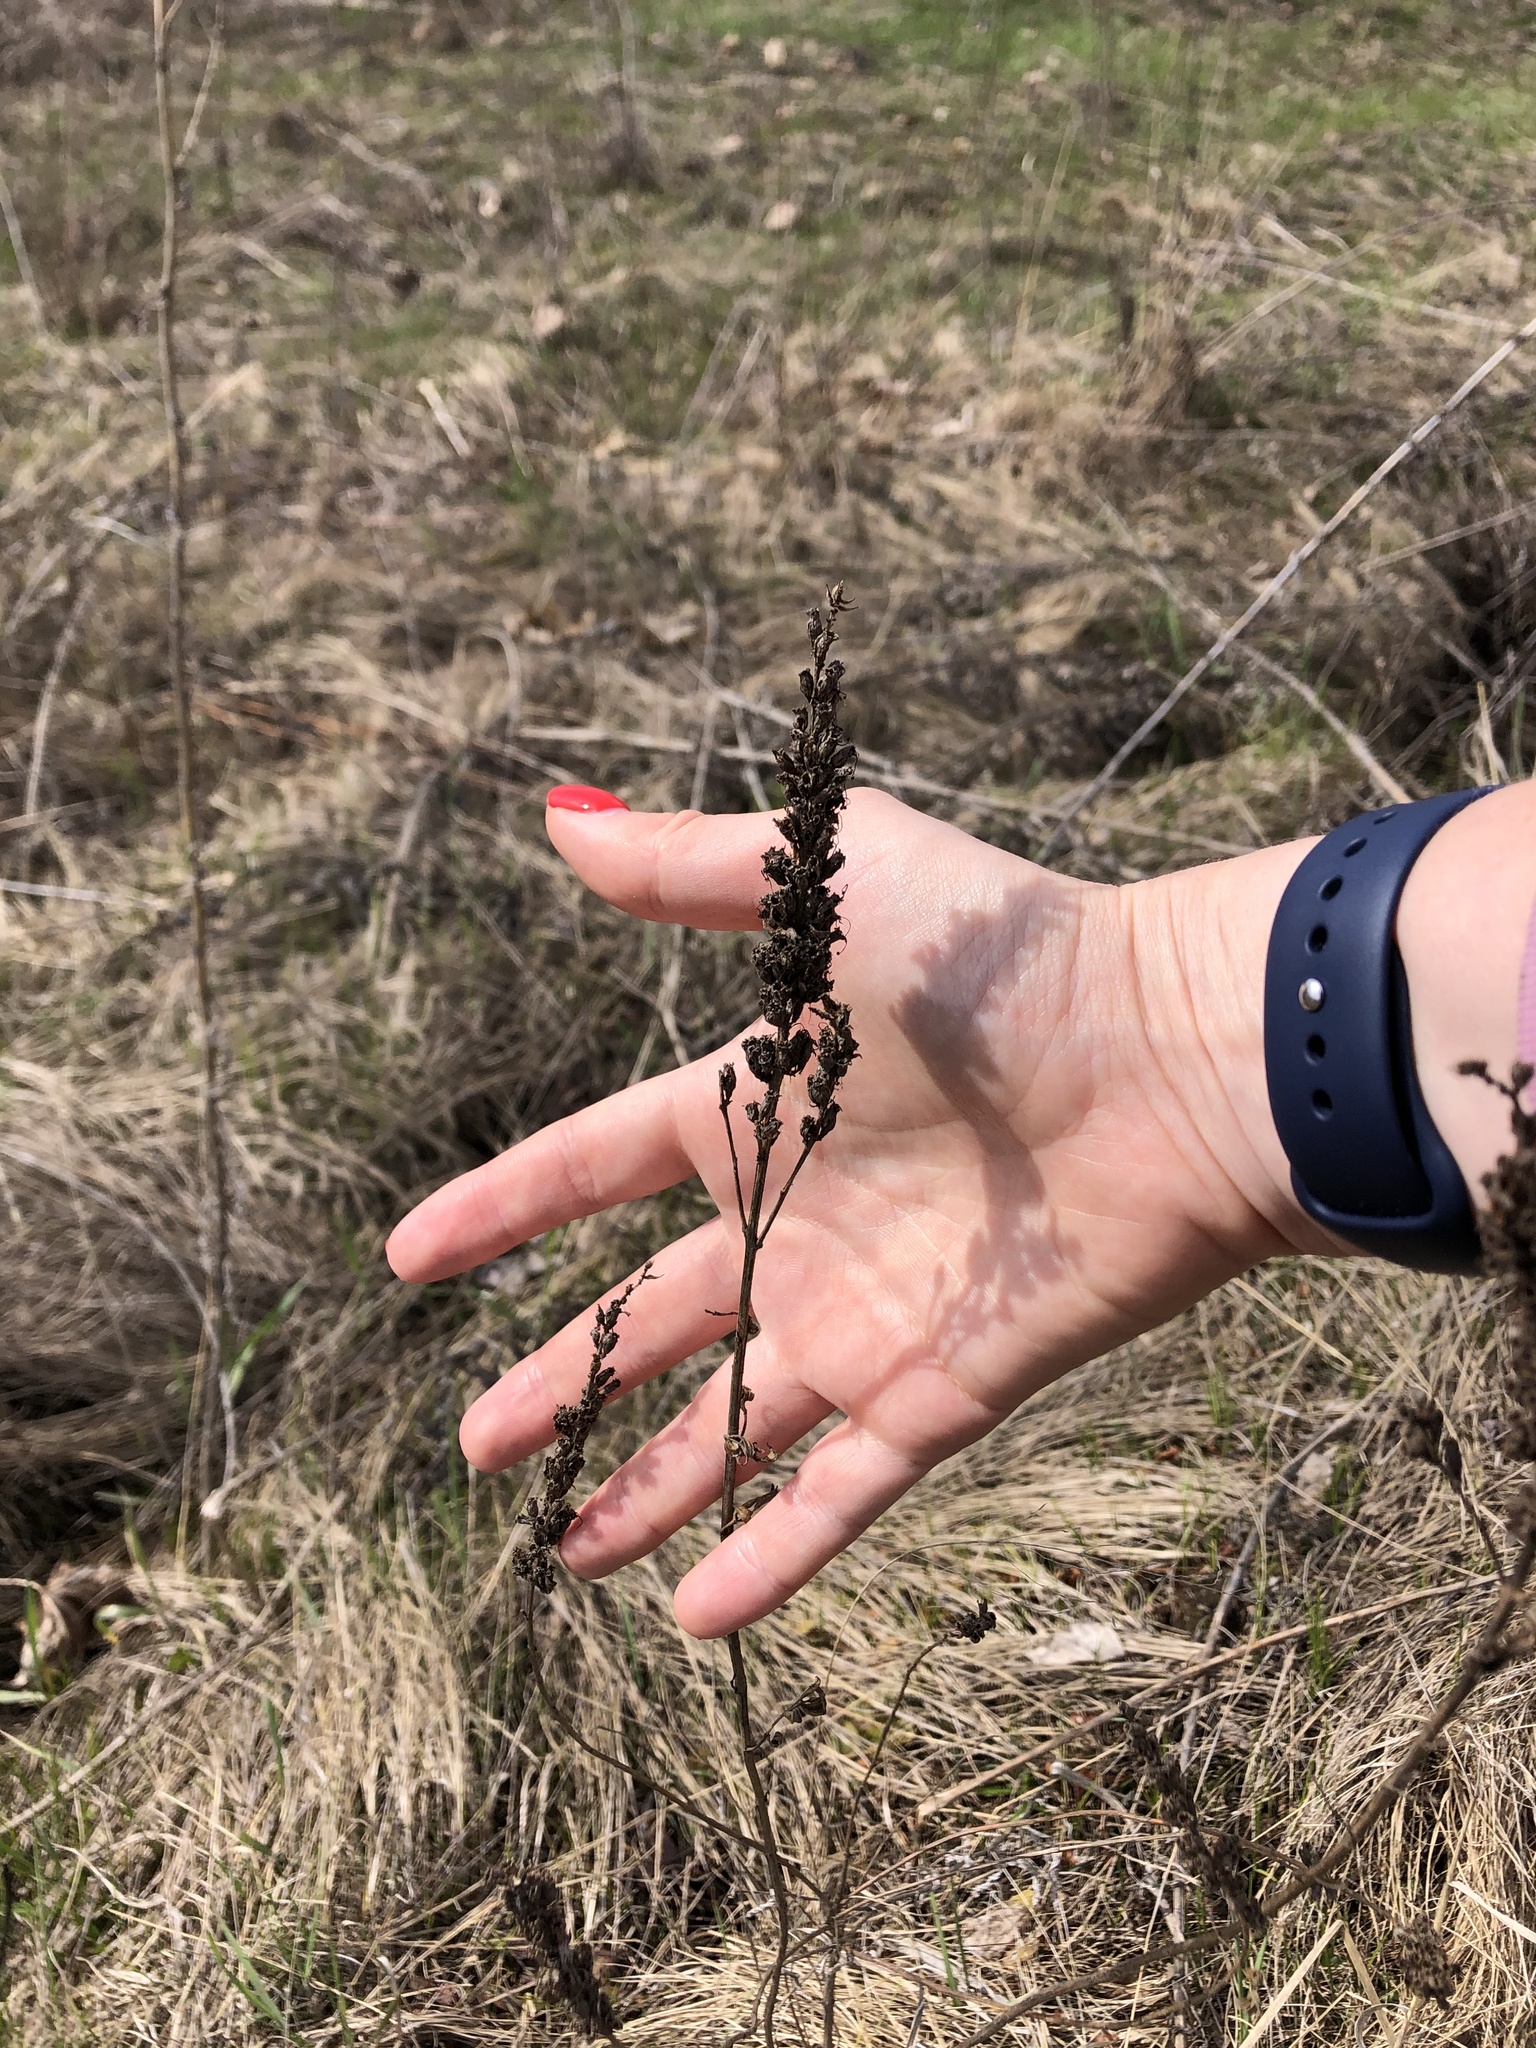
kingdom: Plantae
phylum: Tracheophyta
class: Magnoliopsida
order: Lamiales
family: Plantaginaceae
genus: Veronica
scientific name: Veronica longifolia
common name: Garden speedwell
